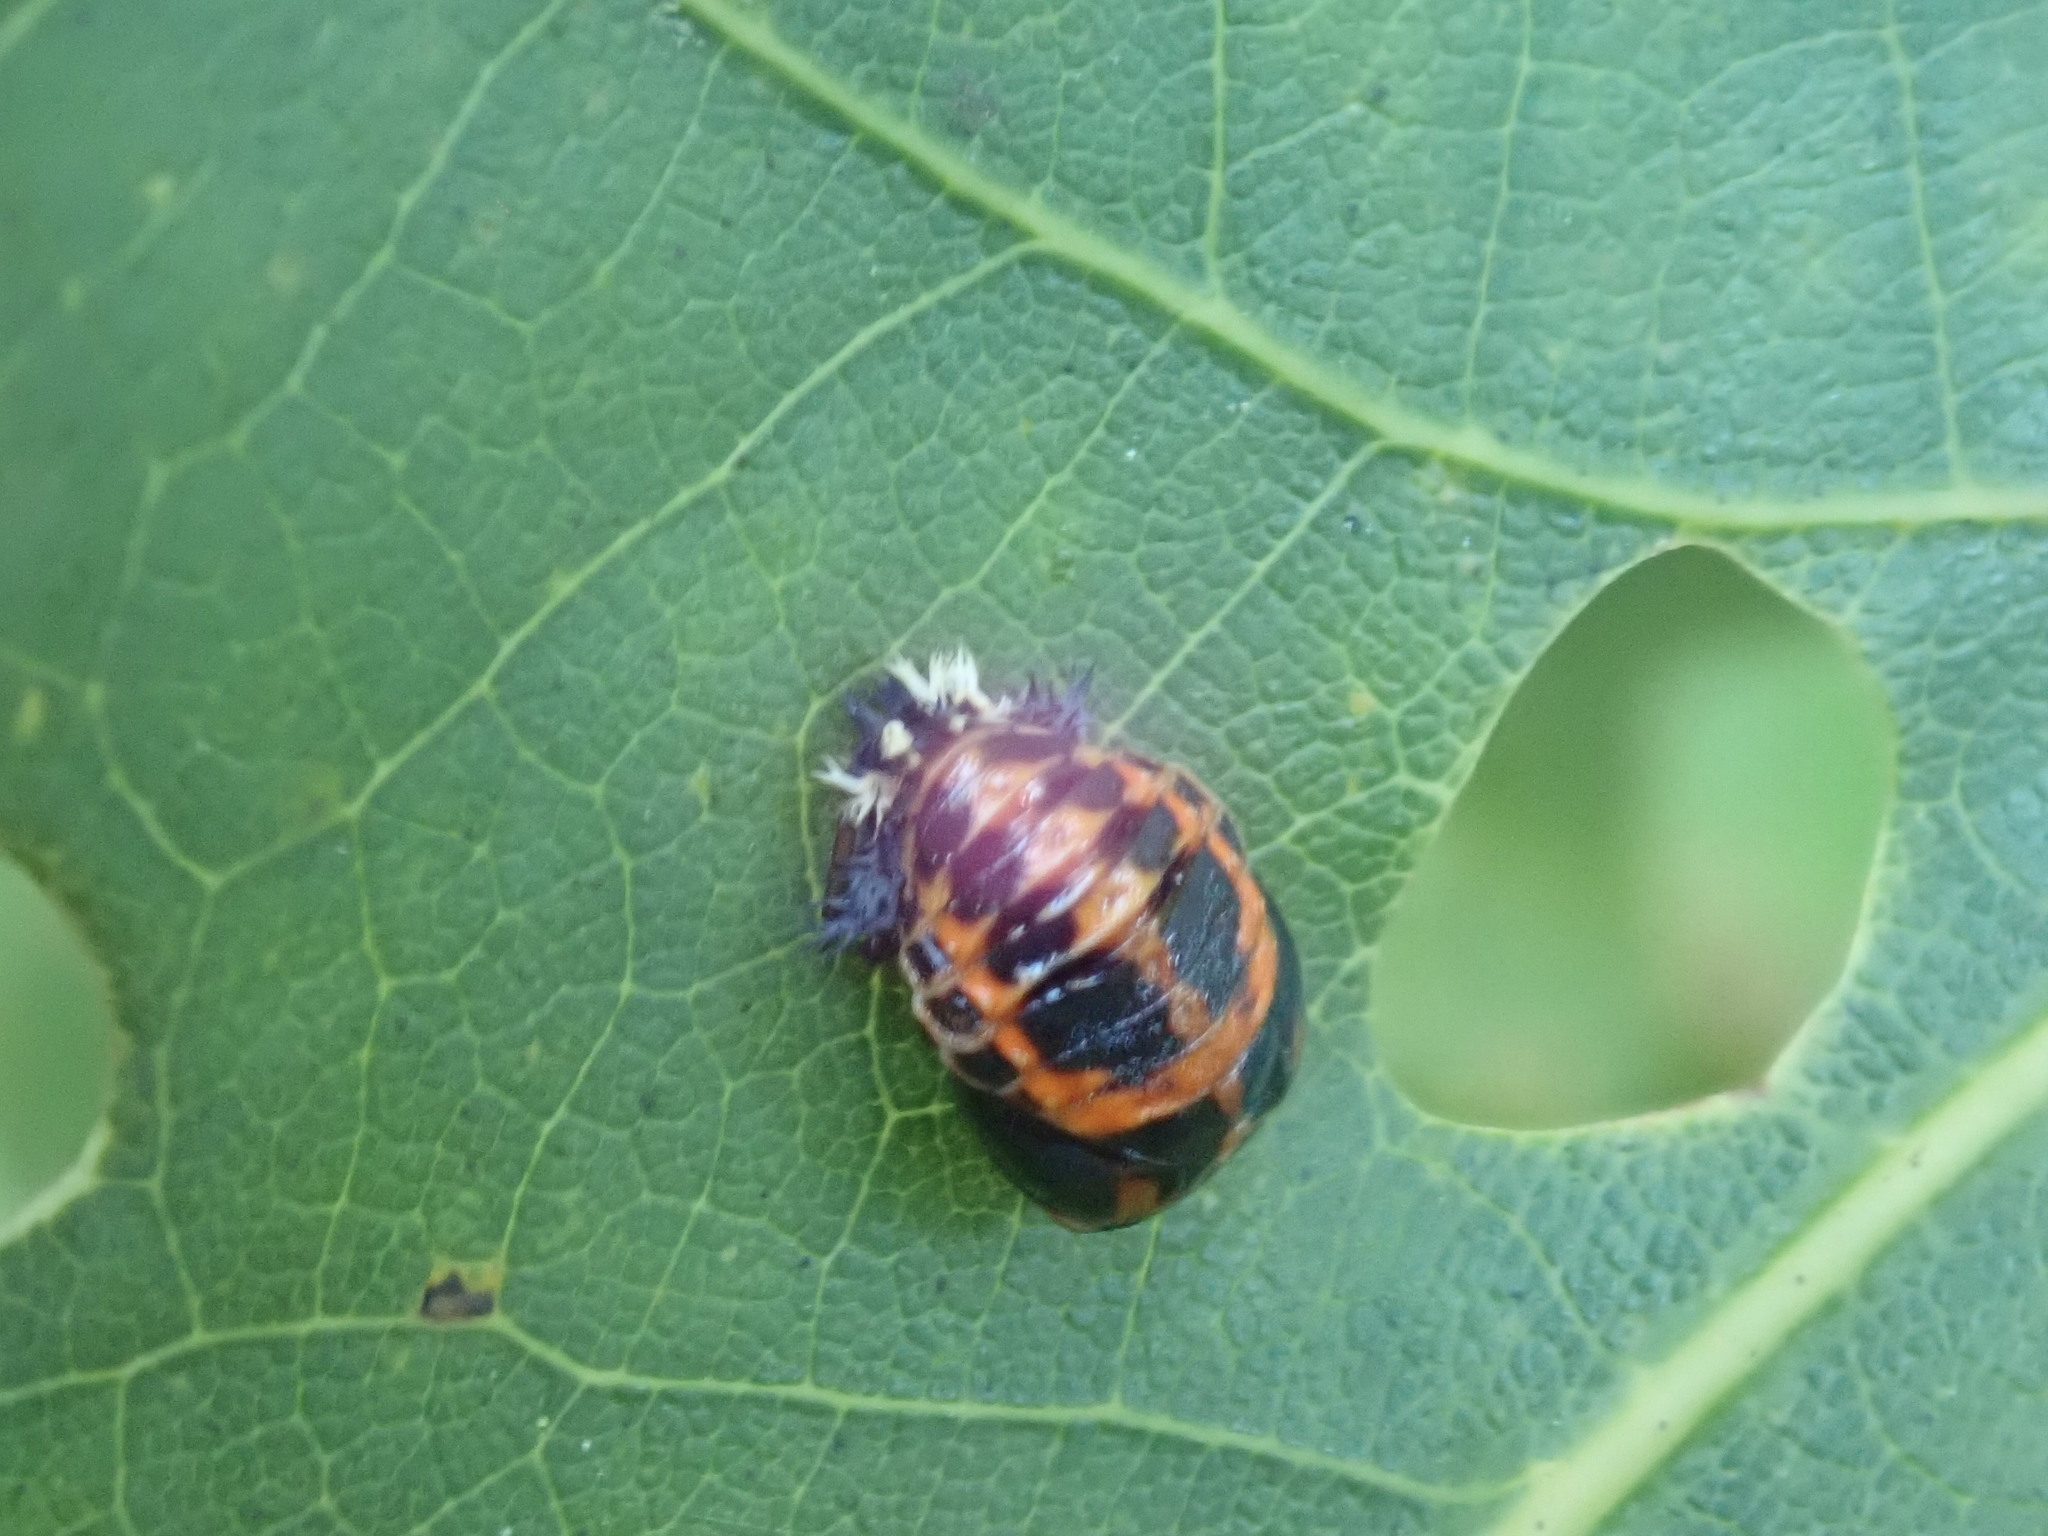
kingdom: Animalia
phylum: Arthropoda
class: Insecta
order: Coleoptera
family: Coccinellidae
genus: Harmonia
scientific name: Harmonia axyridis
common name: Harlequin ladybird
